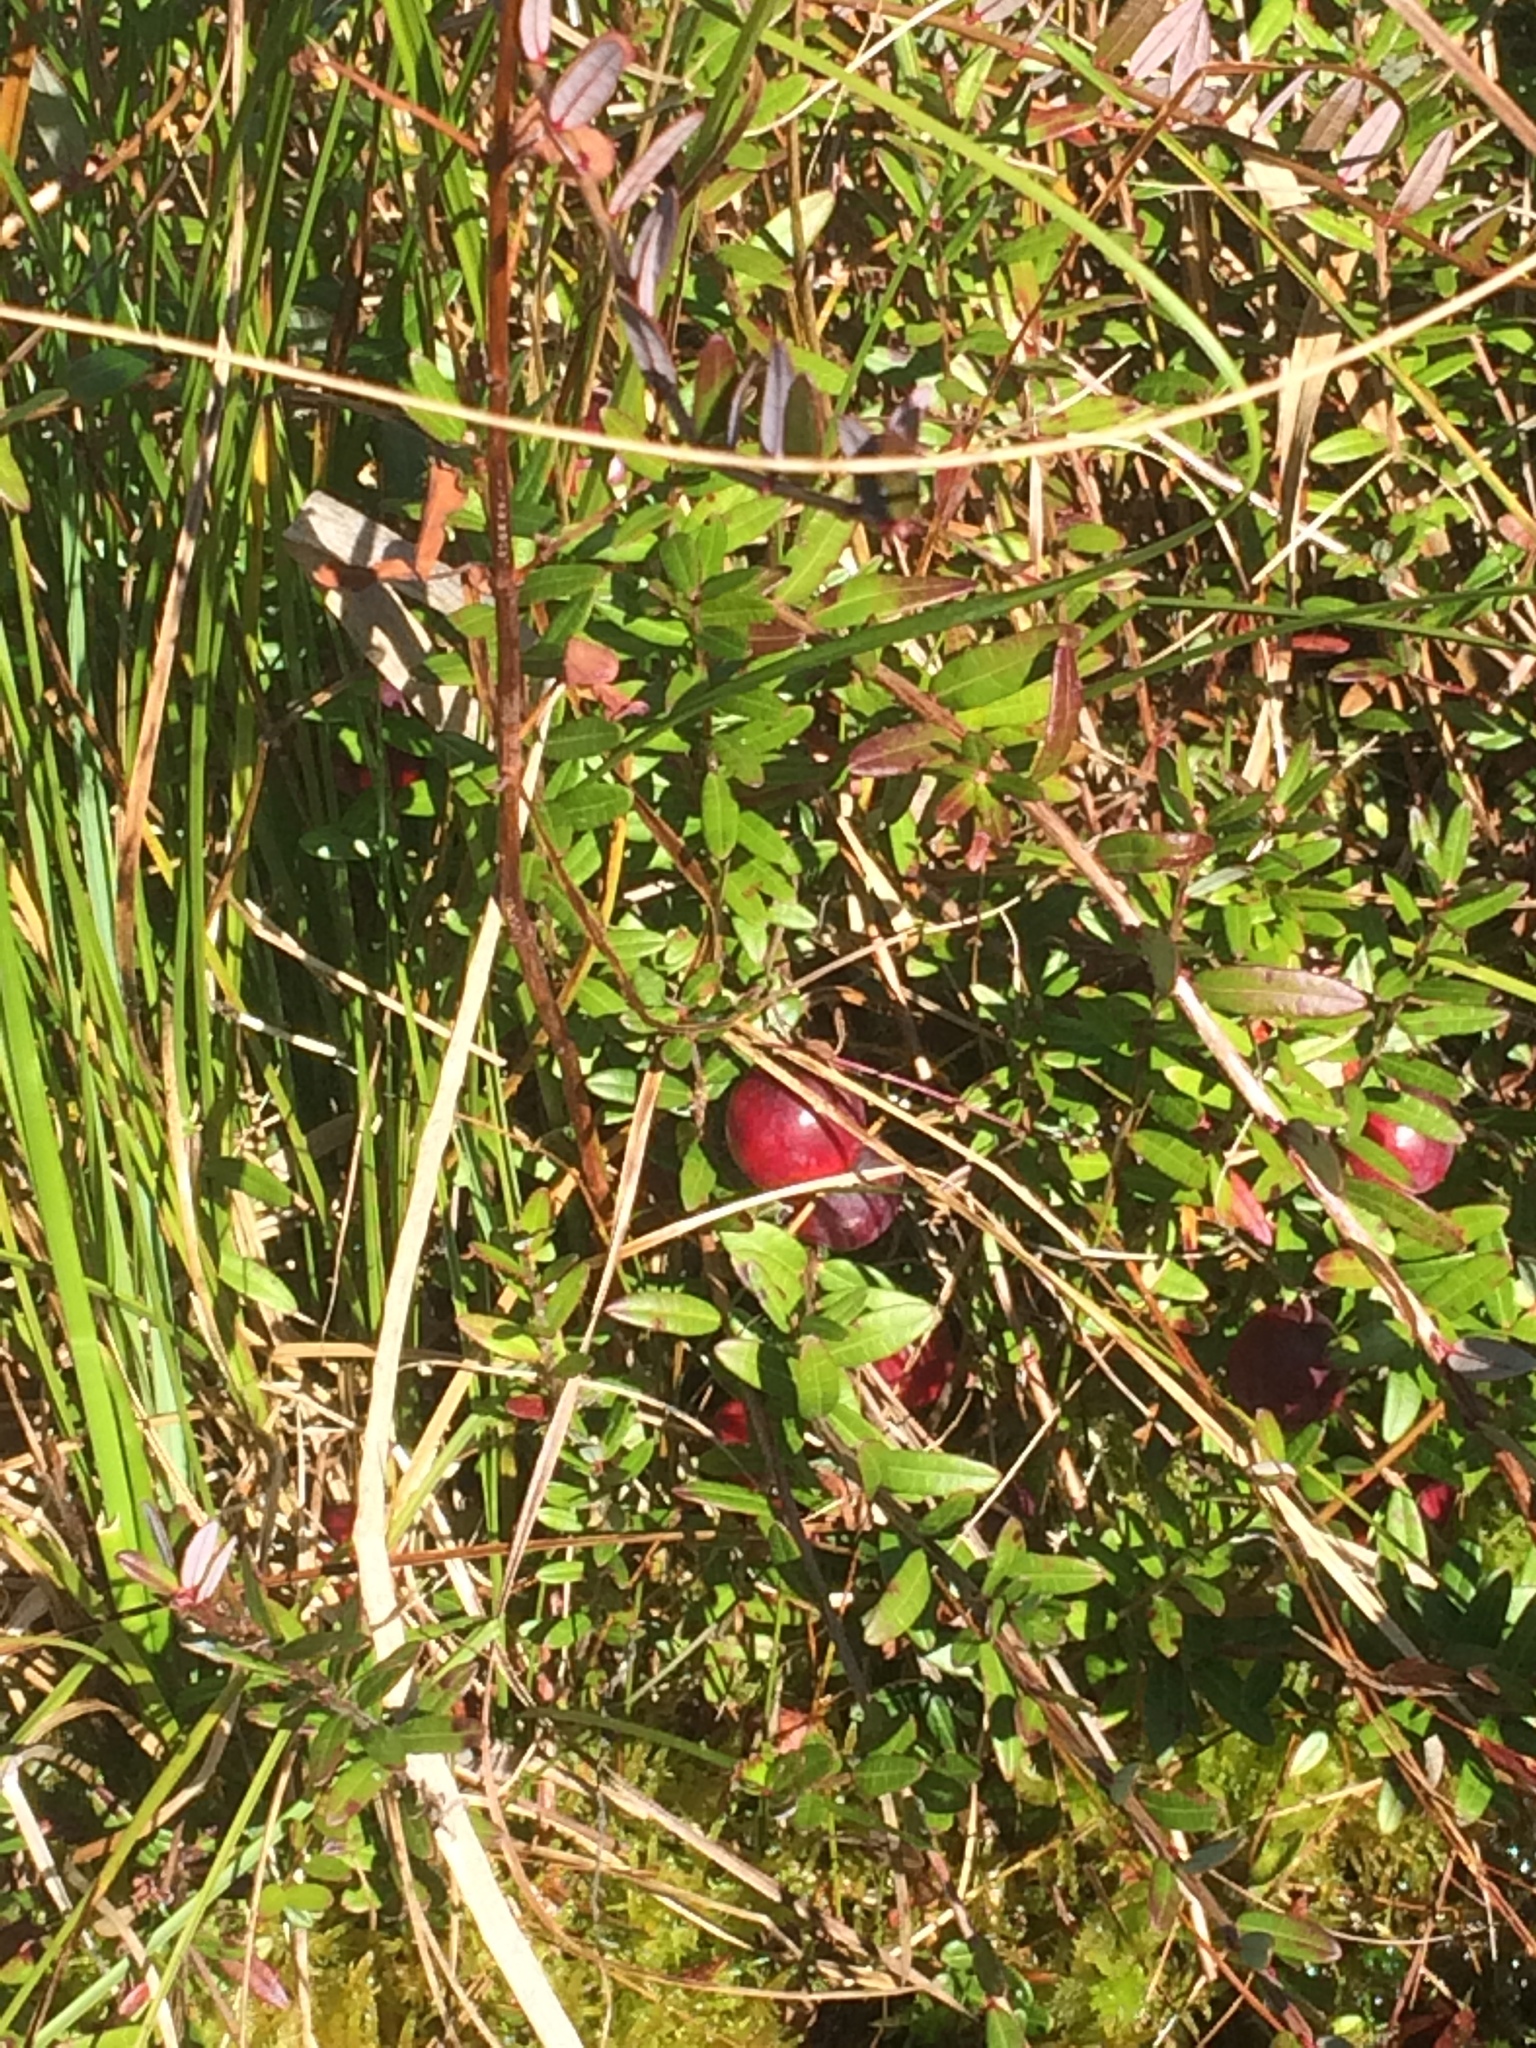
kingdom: Plantae
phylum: Tracheophyta
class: Magnoliopsida
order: Ericales
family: Ericaceae
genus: Vaccinium
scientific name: Vaccinium macrocarpon
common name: American cranberry
